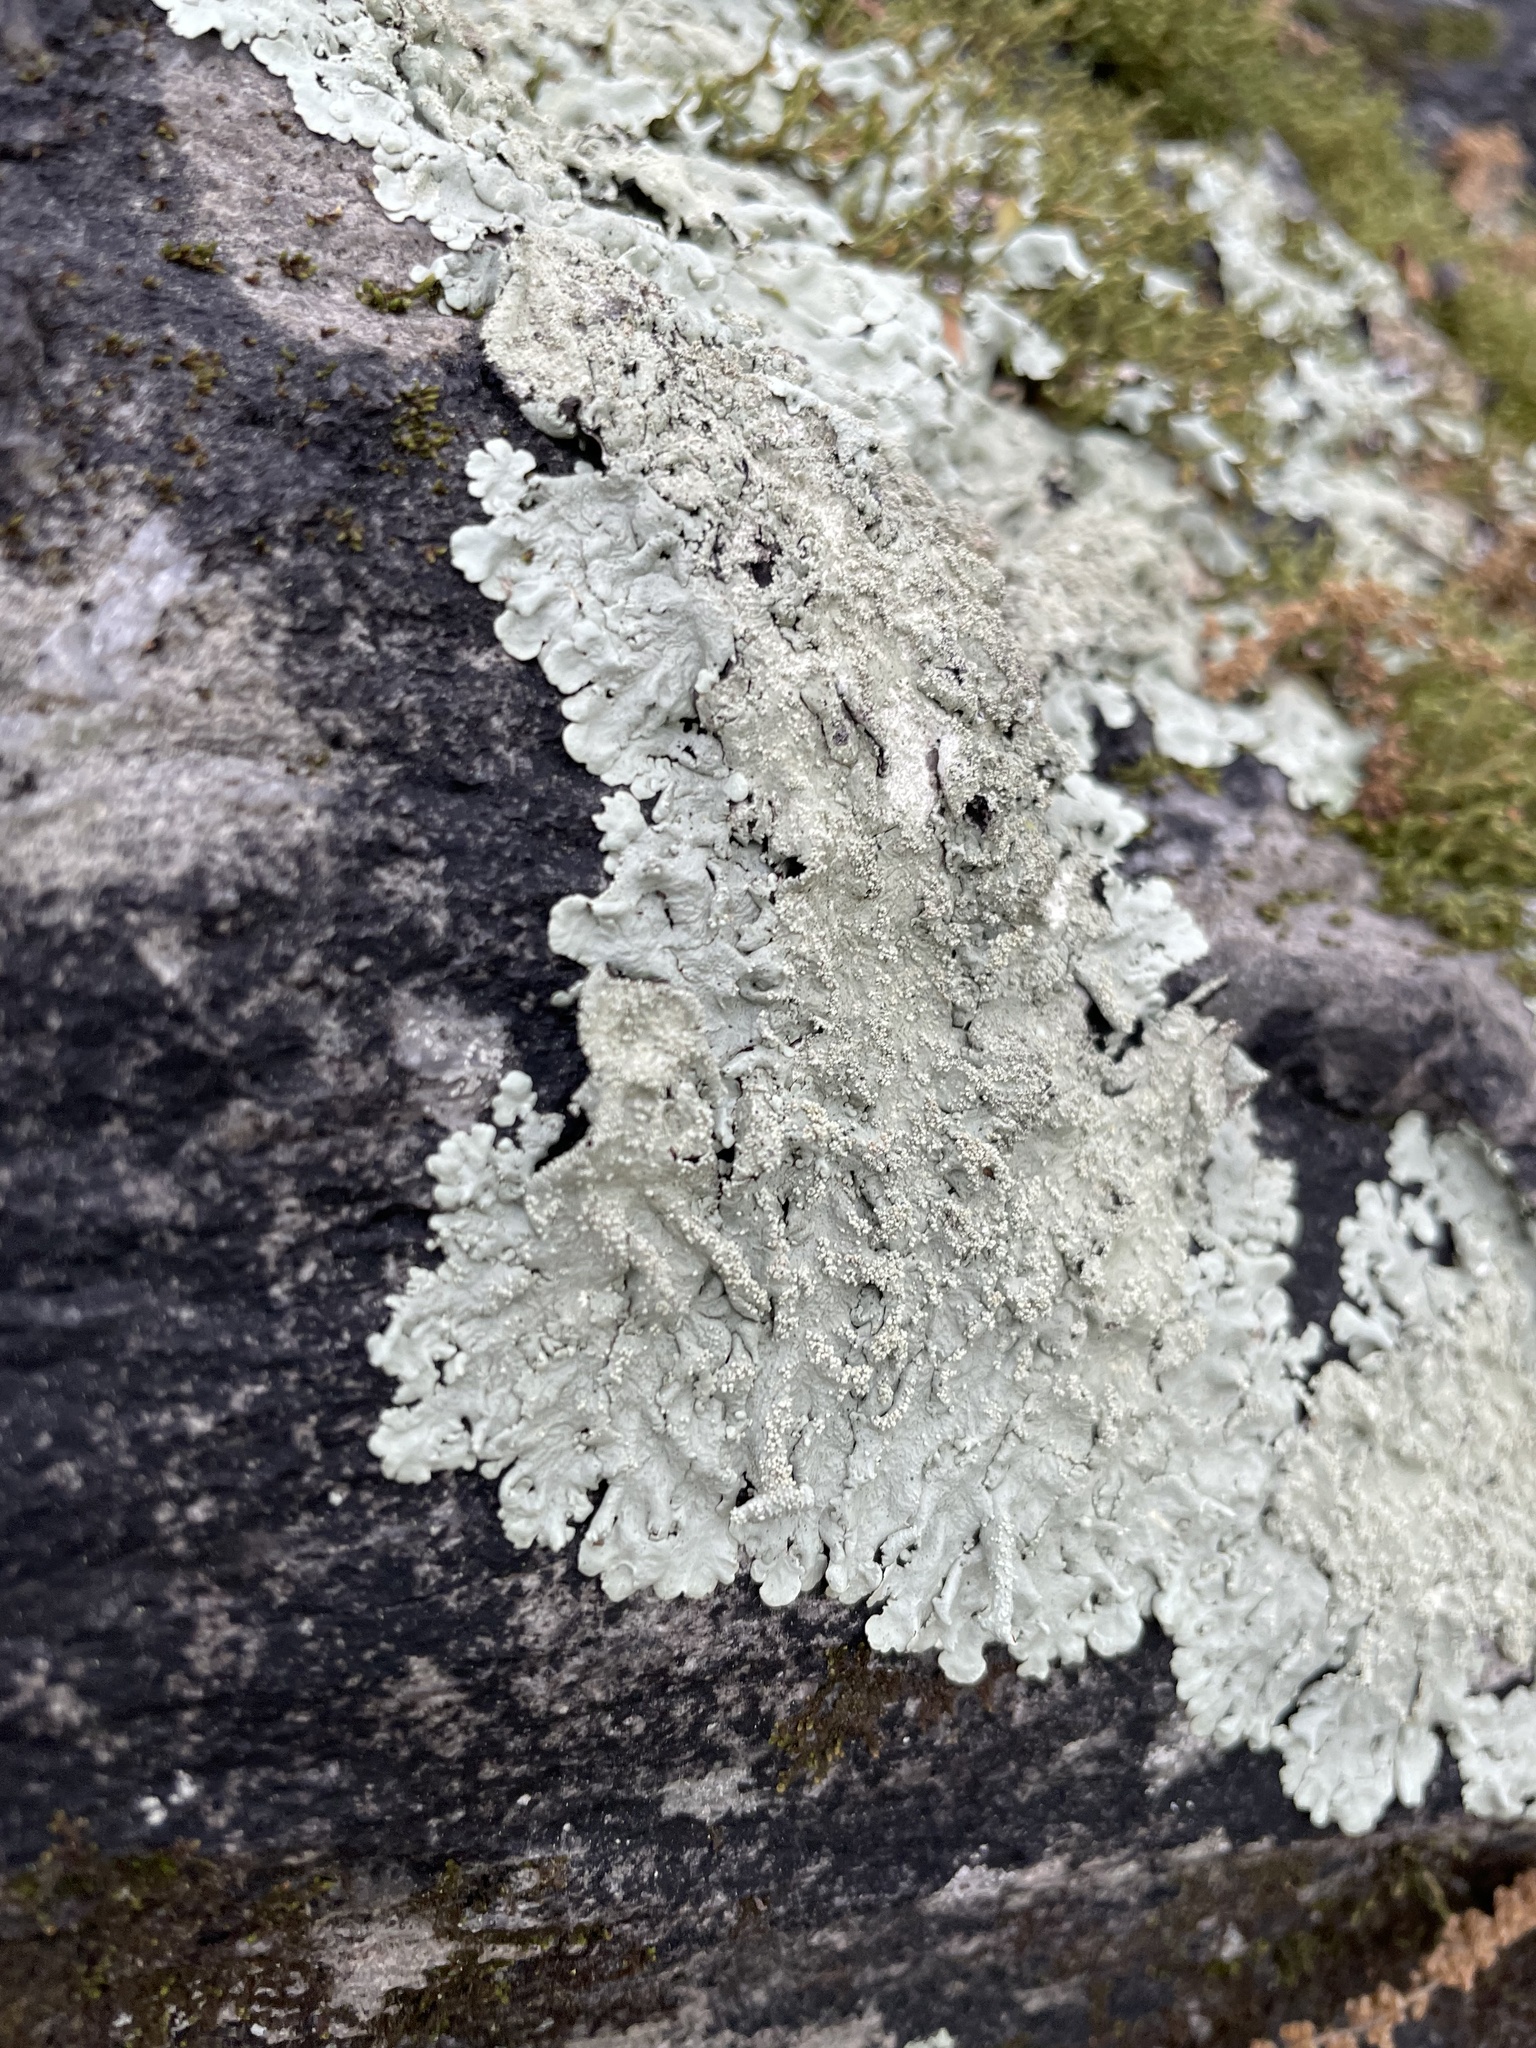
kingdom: Fungi
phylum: Ascomycota
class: Lecanoromycetes
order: Lecanorales
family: Parmeliaceae
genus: Flavoparmelia
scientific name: Flavoparmelia baltimorensis
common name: Rock greenshield
